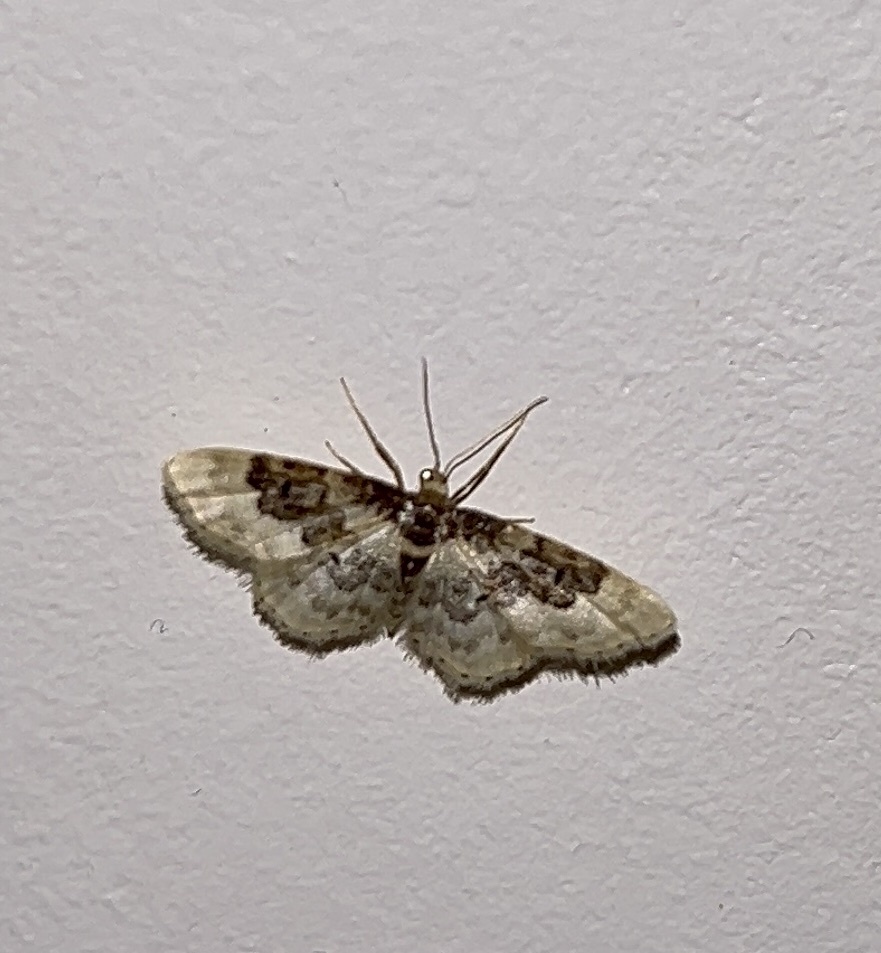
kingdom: Animalia
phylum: Arthropoda
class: Insecta
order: Lepidoptera
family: Geometridae
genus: Idaea
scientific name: Idaea rusticata
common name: Least carpet
